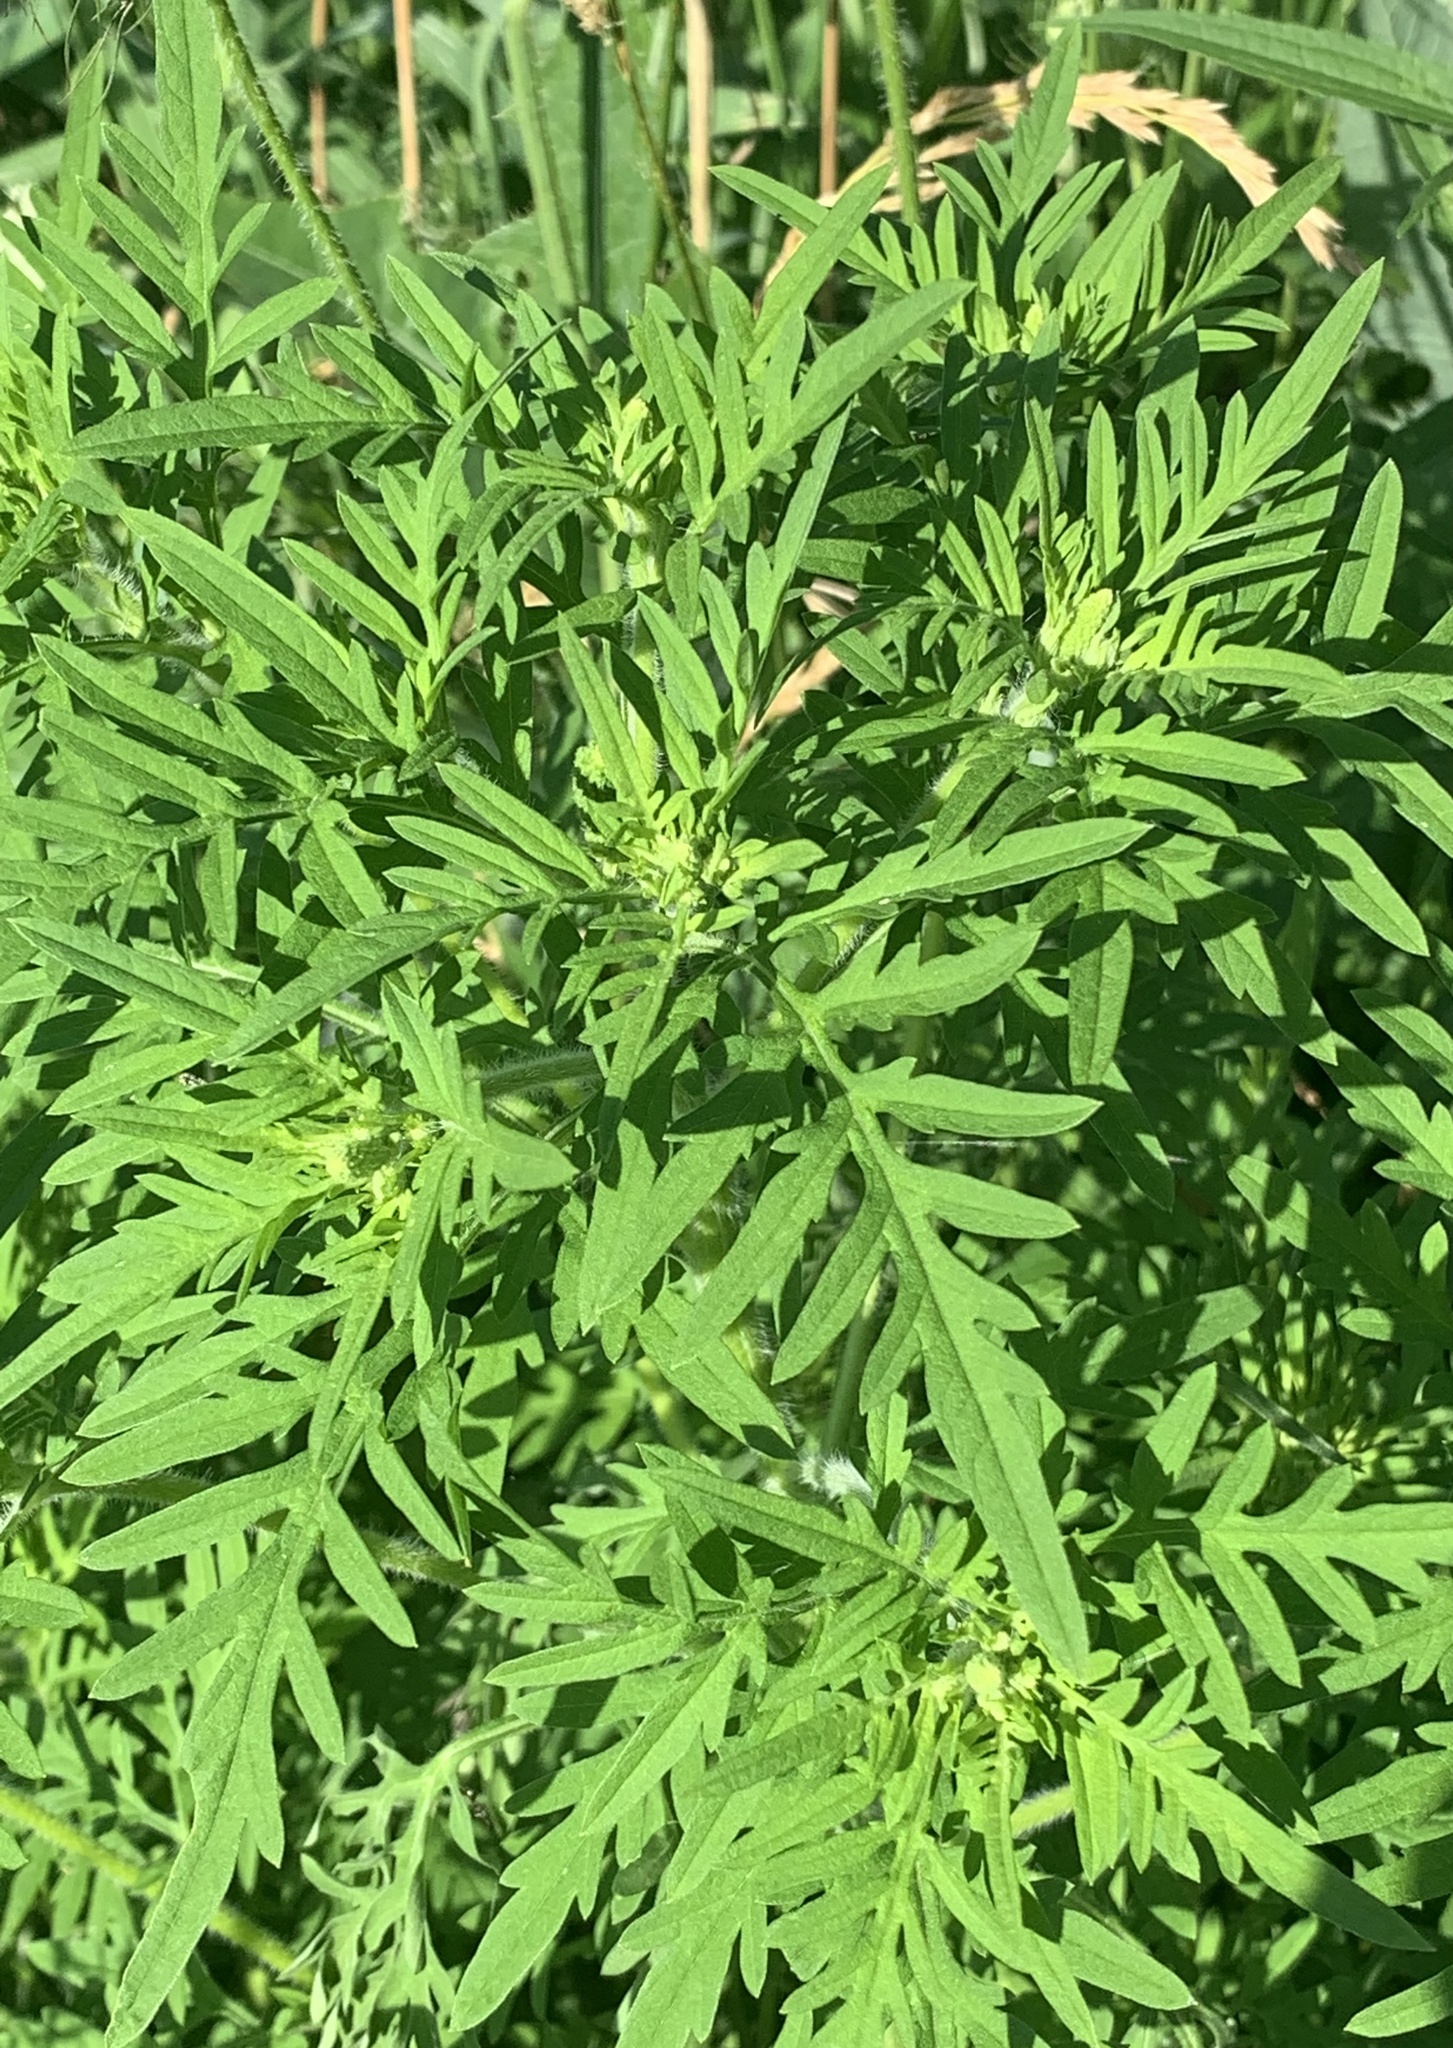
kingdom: Plantae
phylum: Tracheophyta
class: Magnoliopsida
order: Asterales
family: Asteraceae
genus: Ambrosia
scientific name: Ambrosia artemisiifolia
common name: Annual ragweed
